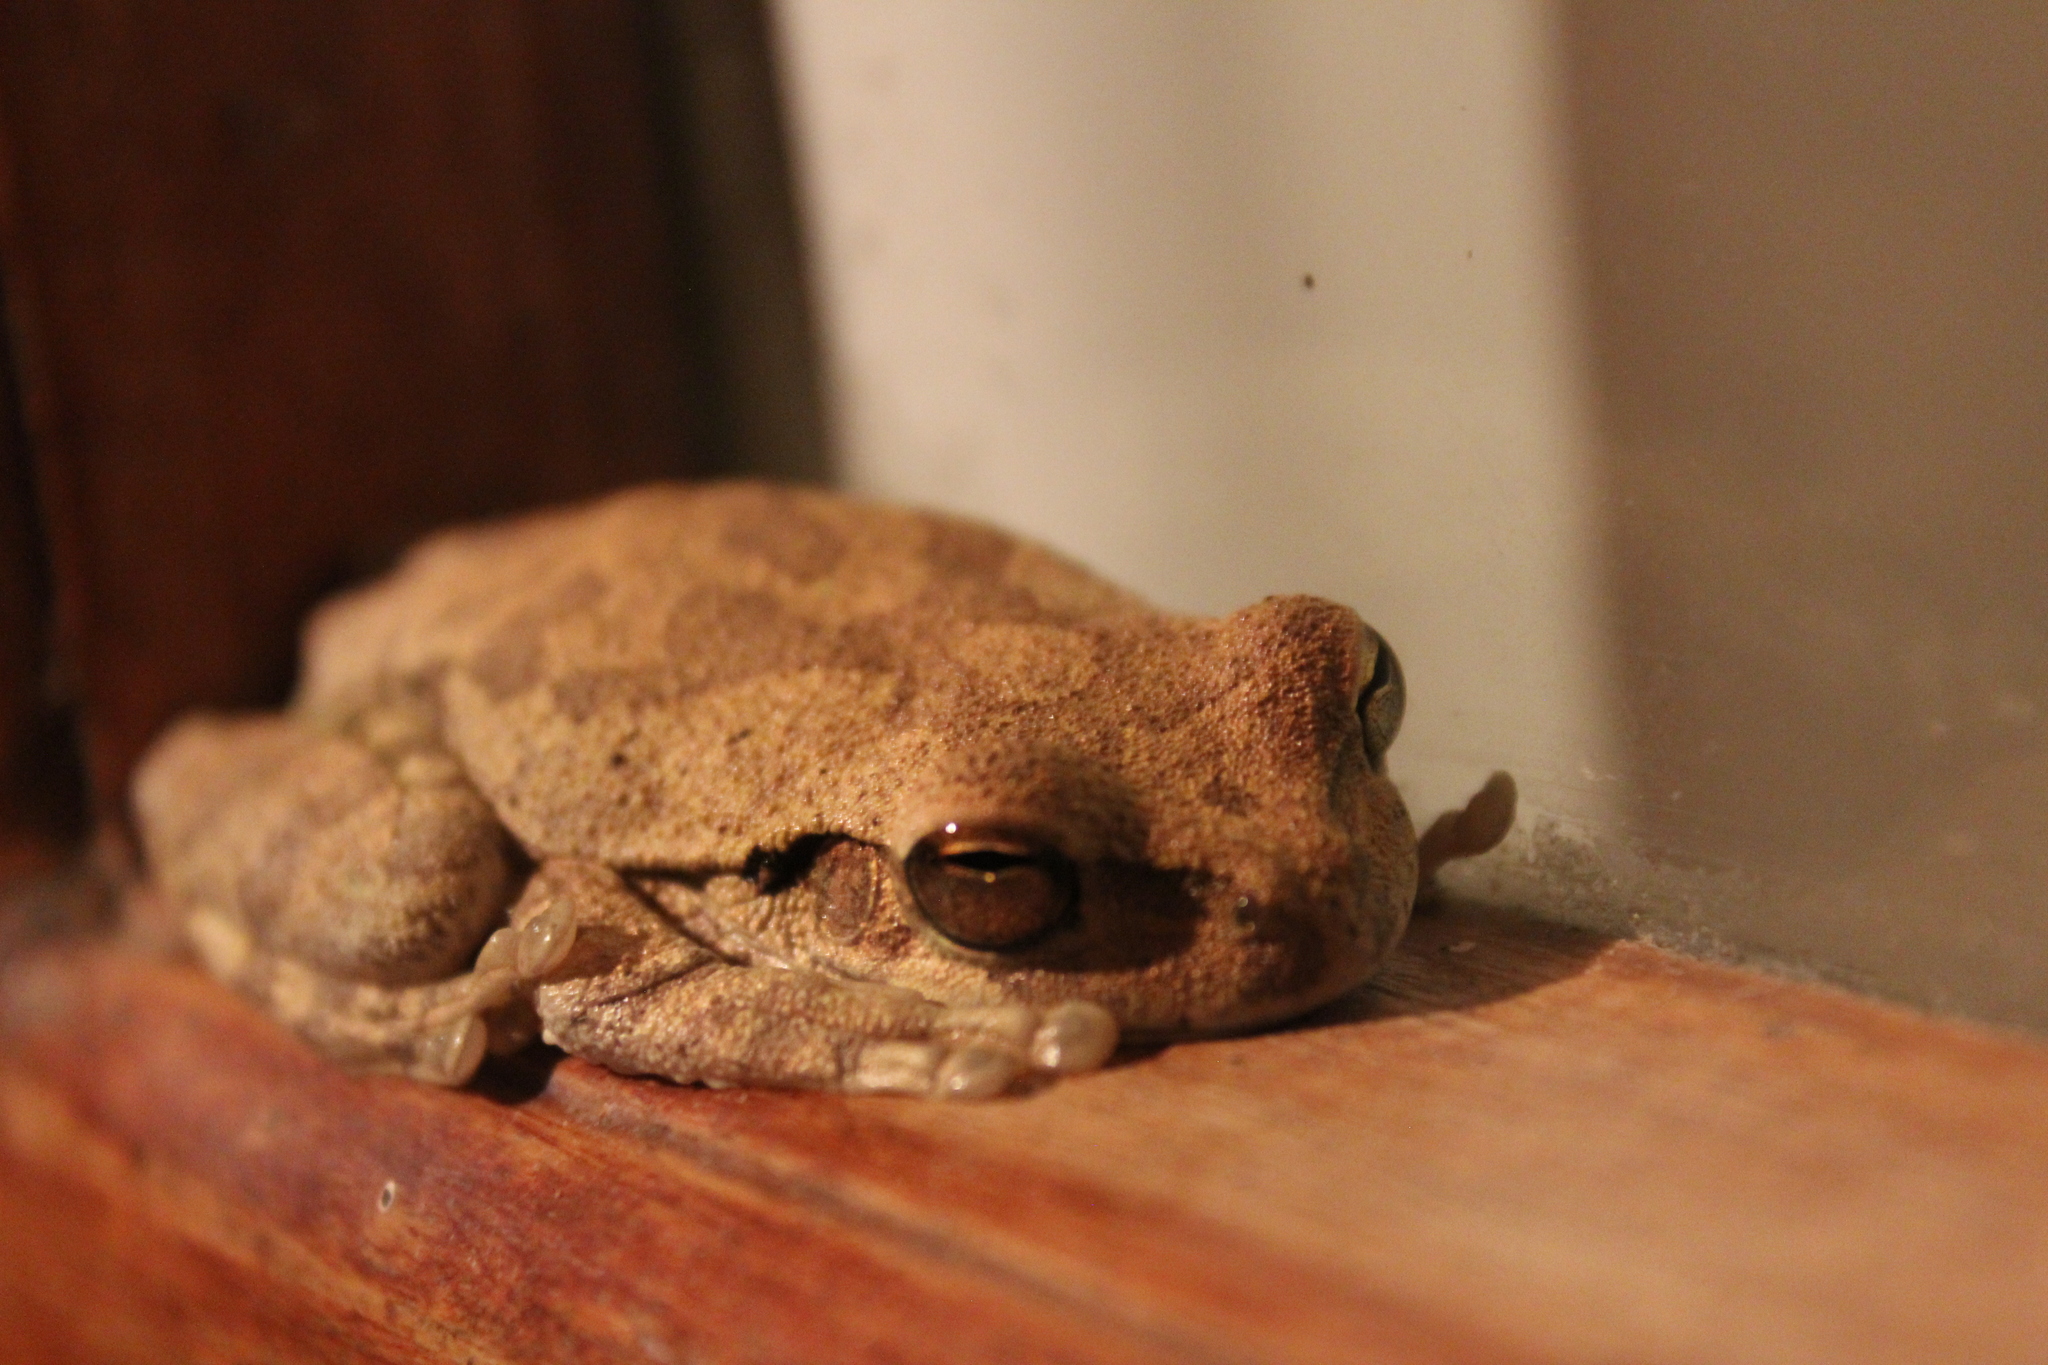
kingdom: Animalia
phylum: Chordata
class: Amphibia
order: Anura
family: Hylidae
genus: Smilisca
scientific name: Smilisca baudinii
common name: Mexican smilisca
